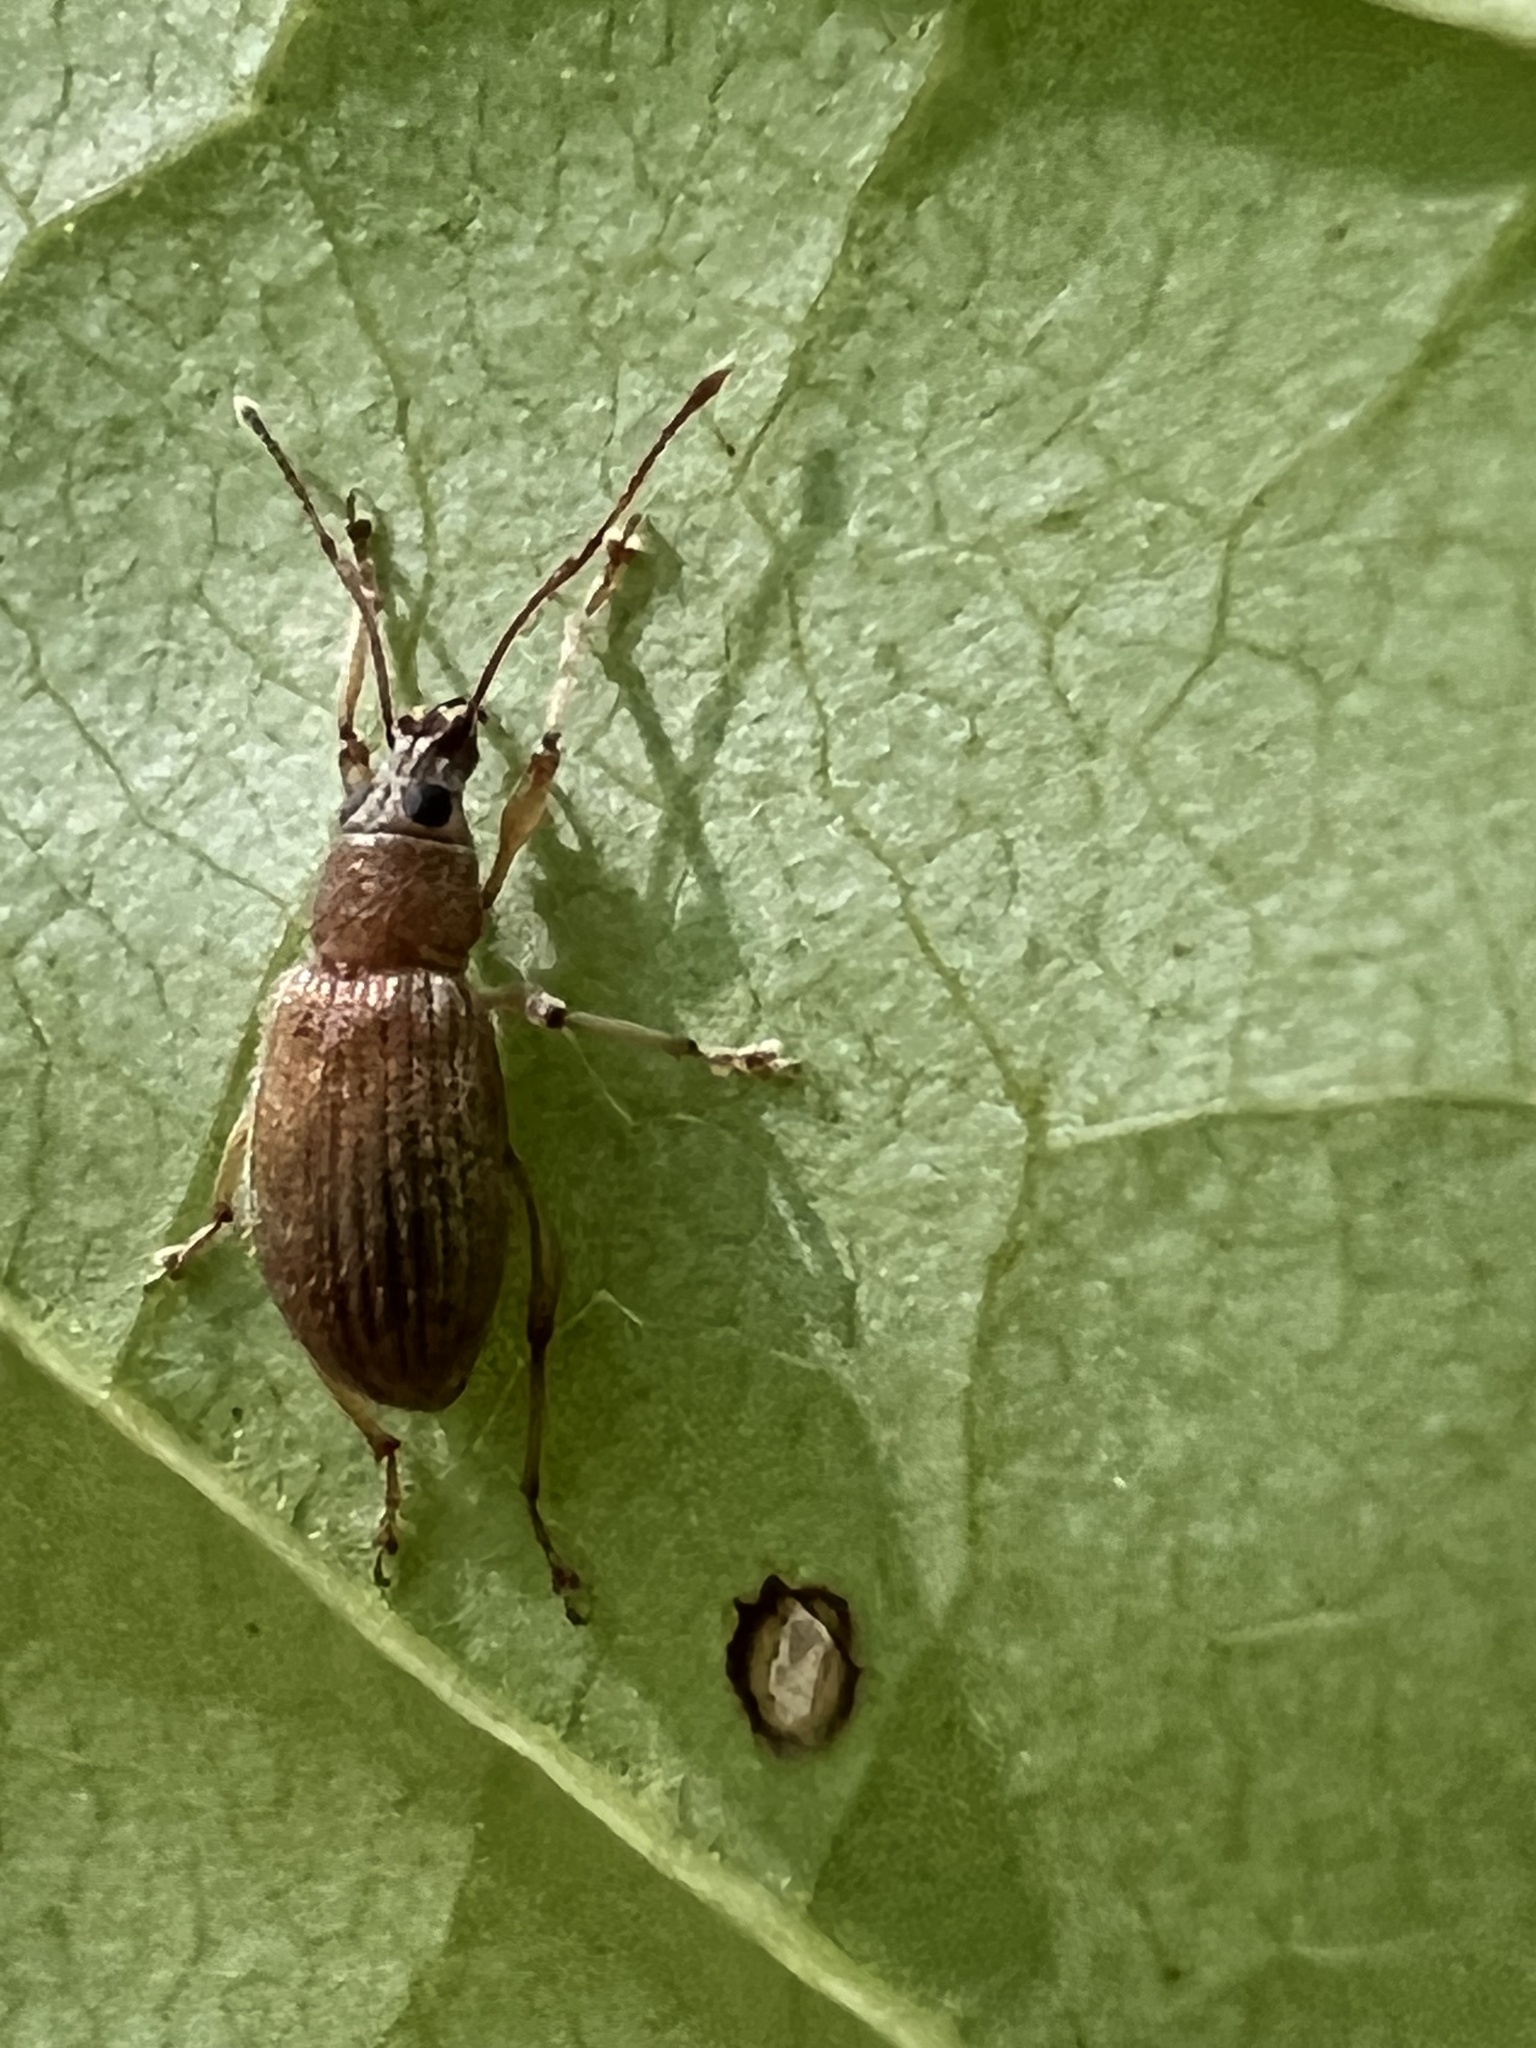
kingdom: Animalia
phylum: Arthropoda
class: Insecta
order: Coleoptera
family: Curculionidae
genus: Cyrtepistomus
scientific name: Cyrtepistomus castaneus
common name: Weevil
